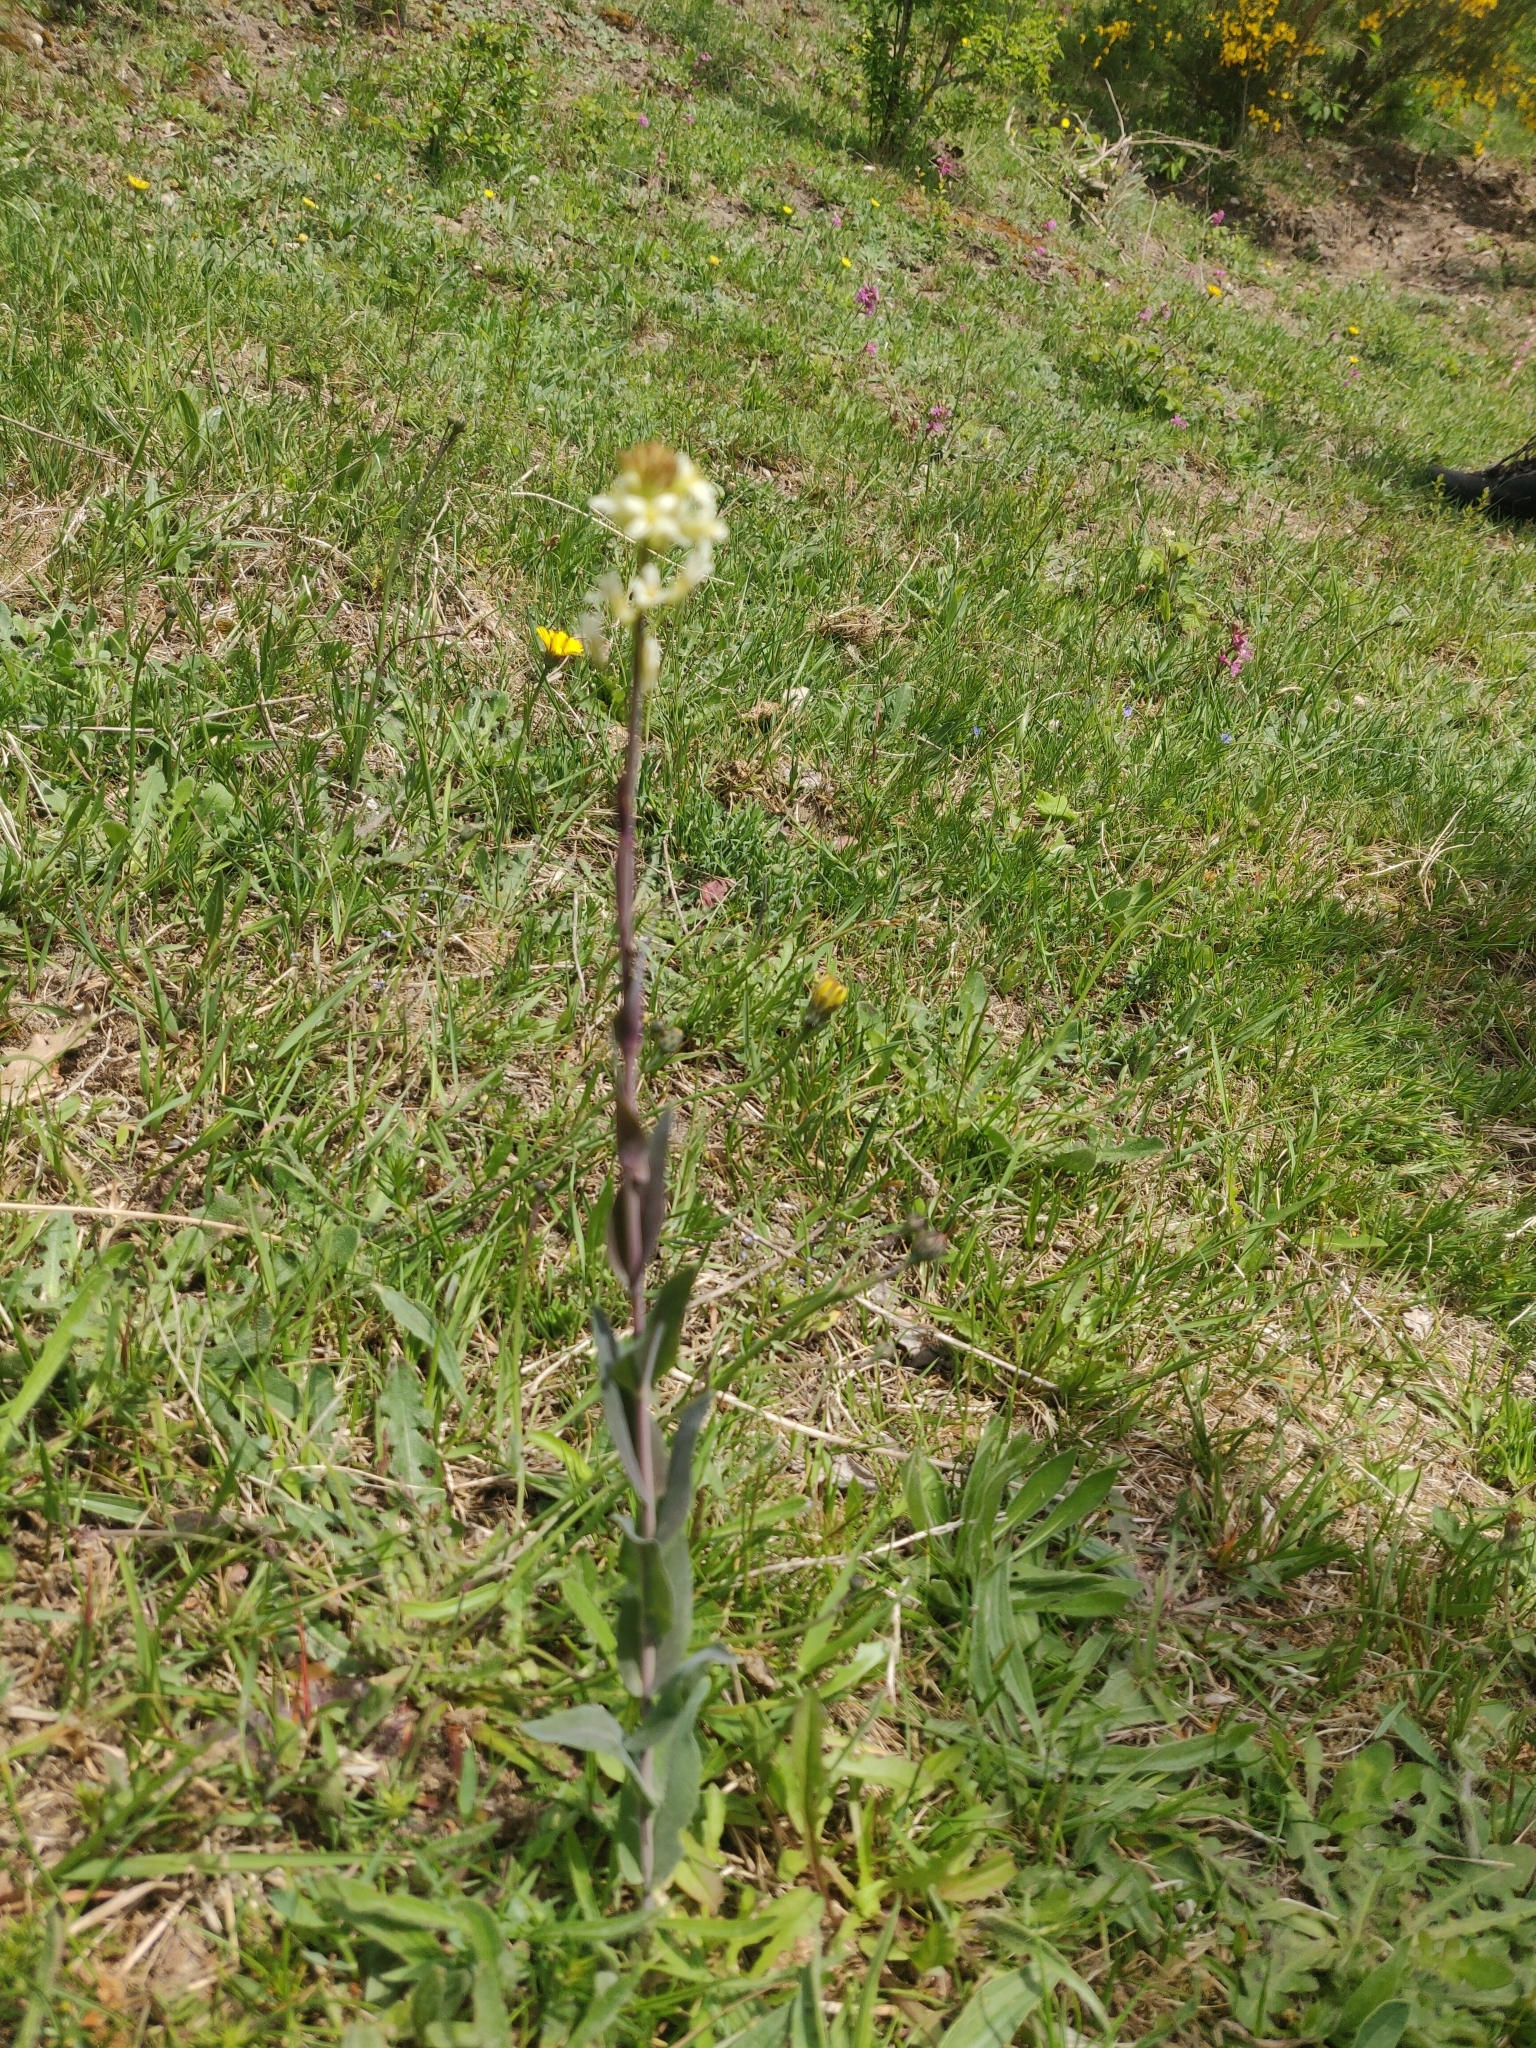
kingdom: Plantae
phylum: Tracheophyta
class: Magnoliopsida
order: Brassicales
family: Brassicaceae
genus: Turritis
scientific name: Turritis glabra
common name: Tower rockcress
